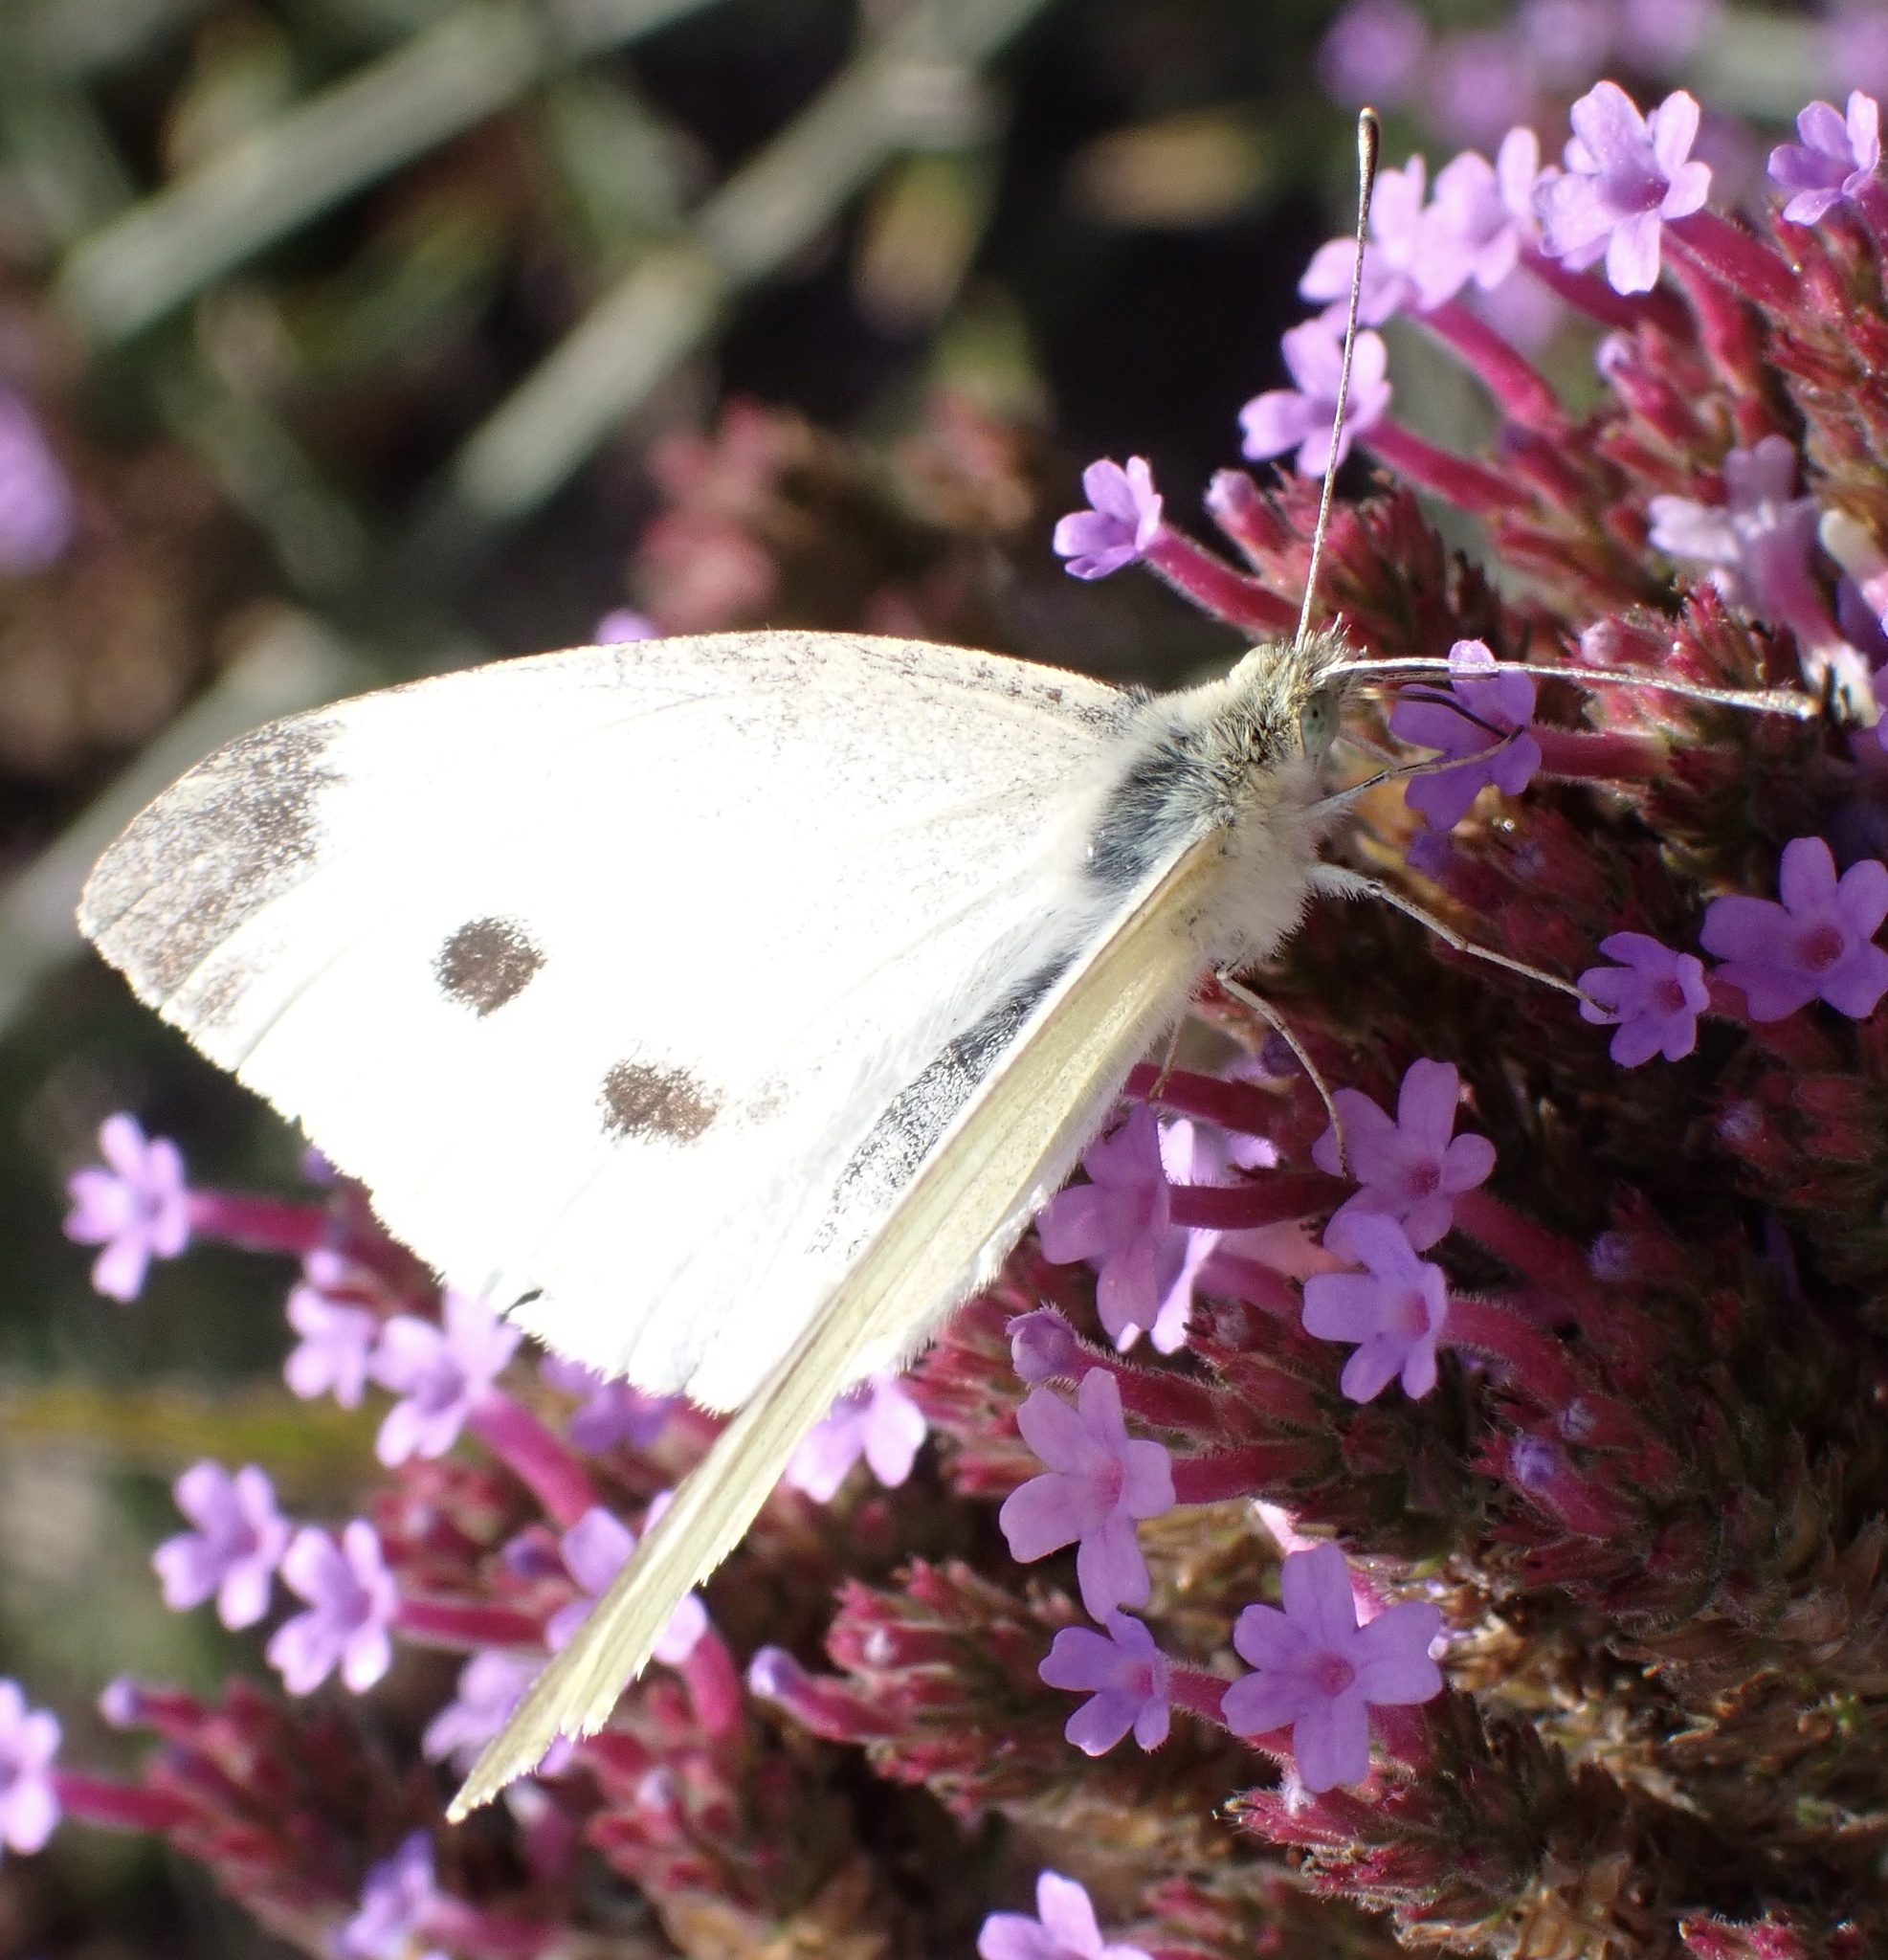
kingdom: Animalia
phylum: Arthropoda
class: Insecta
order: Lepidoptera
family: Pieridae
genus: Pieris
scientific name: Pieris rapae
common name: Small white
